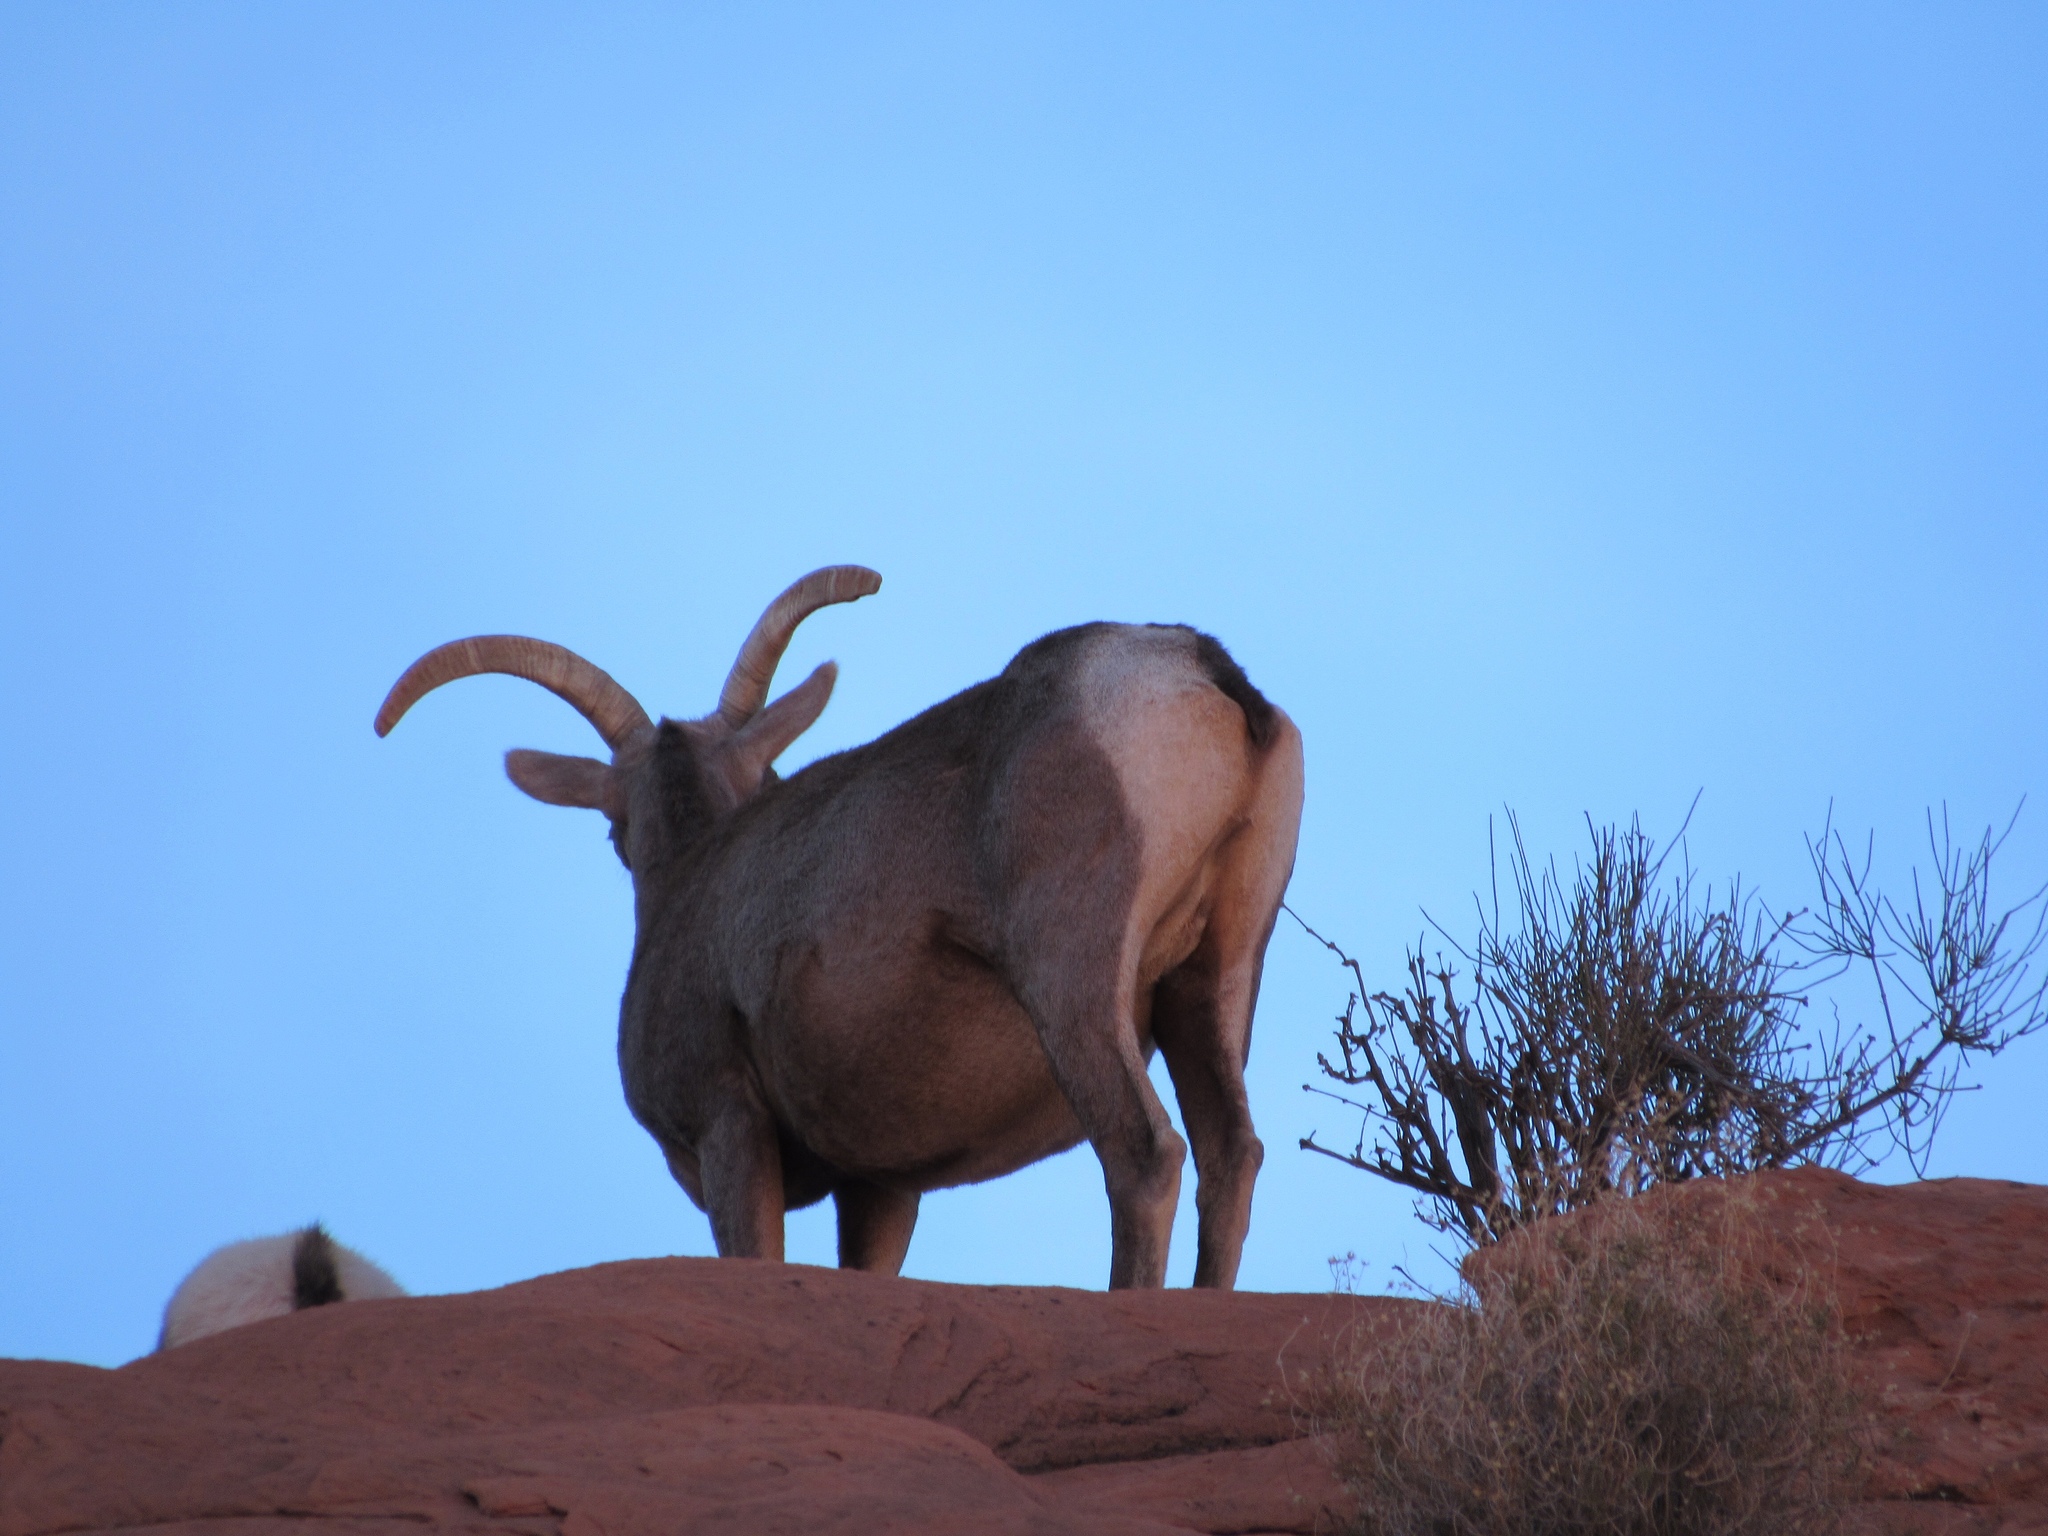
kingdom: Animalia
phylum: Chordata
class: Mammalia
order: Artiodactyla
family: Bovidae
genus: Ovis
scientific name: Ovis canadensis
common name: Bighorn sheep
